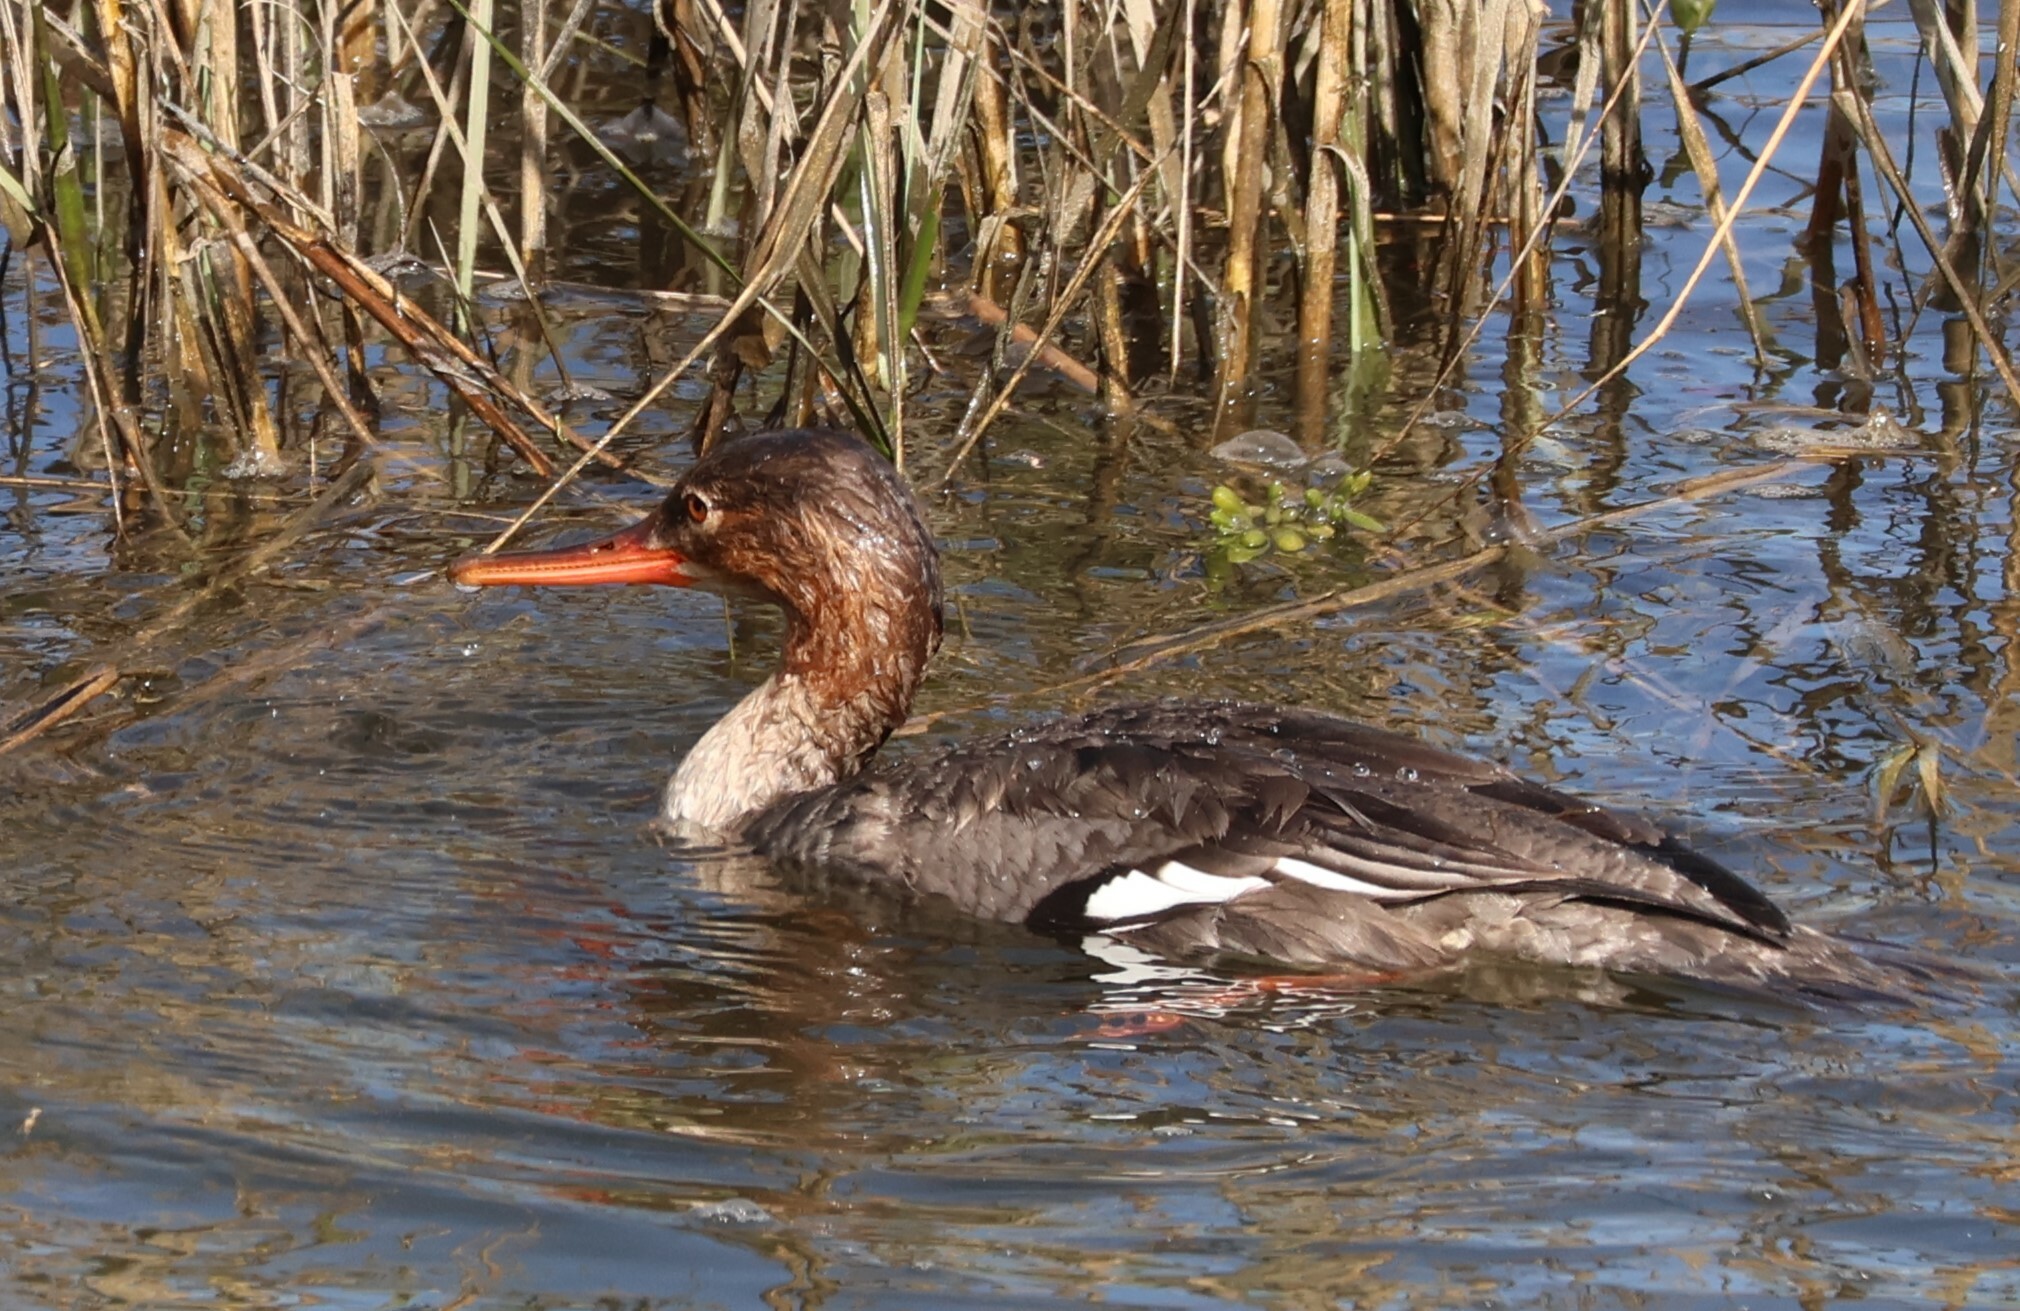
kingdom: Animalia
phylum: Chordata
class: Aves
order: Anseriformes
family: Anatidae
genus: Mergus
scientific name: Mergus serrator
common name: Red-breasted merganser
